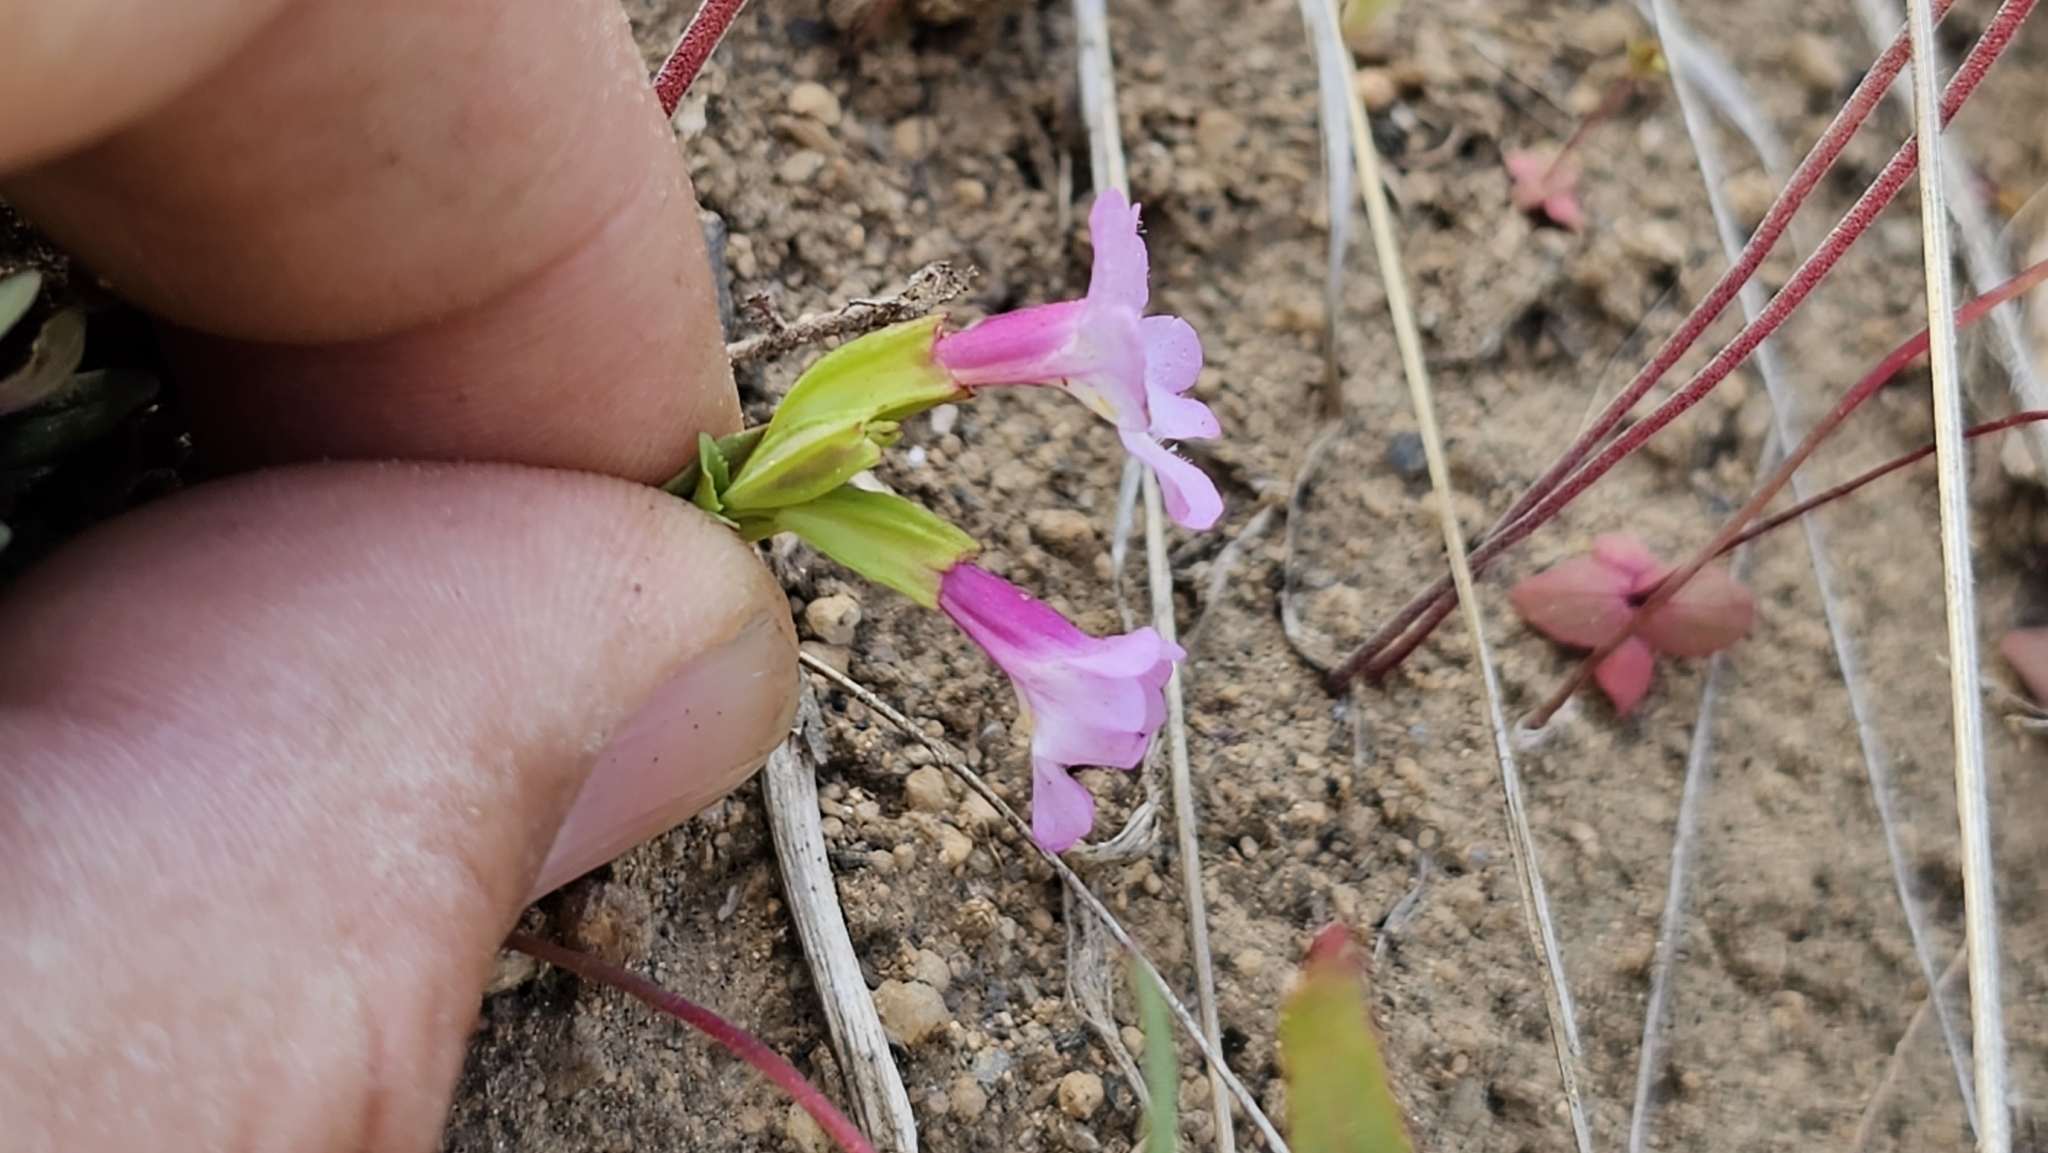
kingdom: Plantae
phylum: Tracheophyta
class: Magnoliopsida
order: Lamiales
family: Phrymaceae
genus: Erythranthe
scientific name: Erythranthe acutidens
